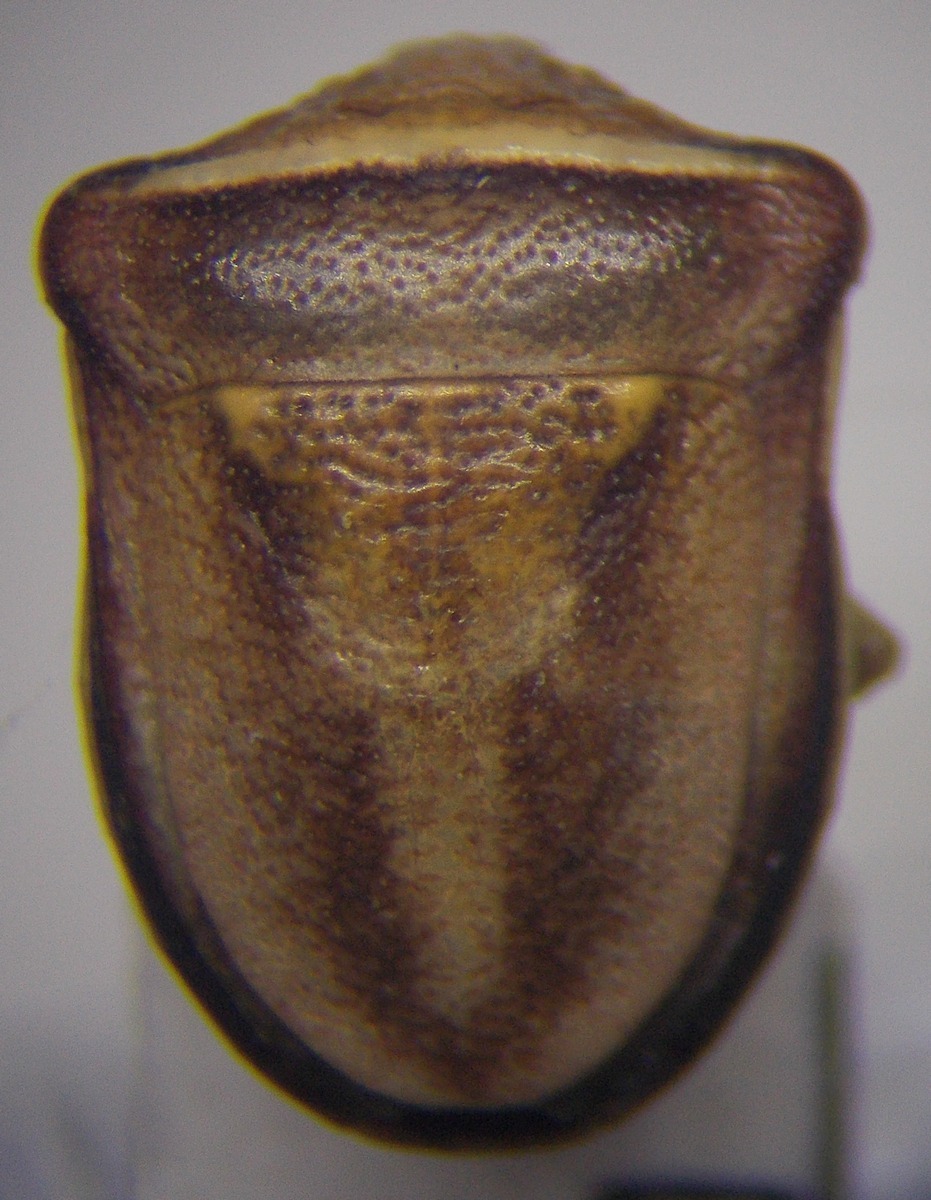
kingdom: Animalia
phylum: Arthropoda
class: Insecta
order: Hemiptera
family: Pentatomidae
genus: Ventocoris
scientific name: Ventocoris halophilum
